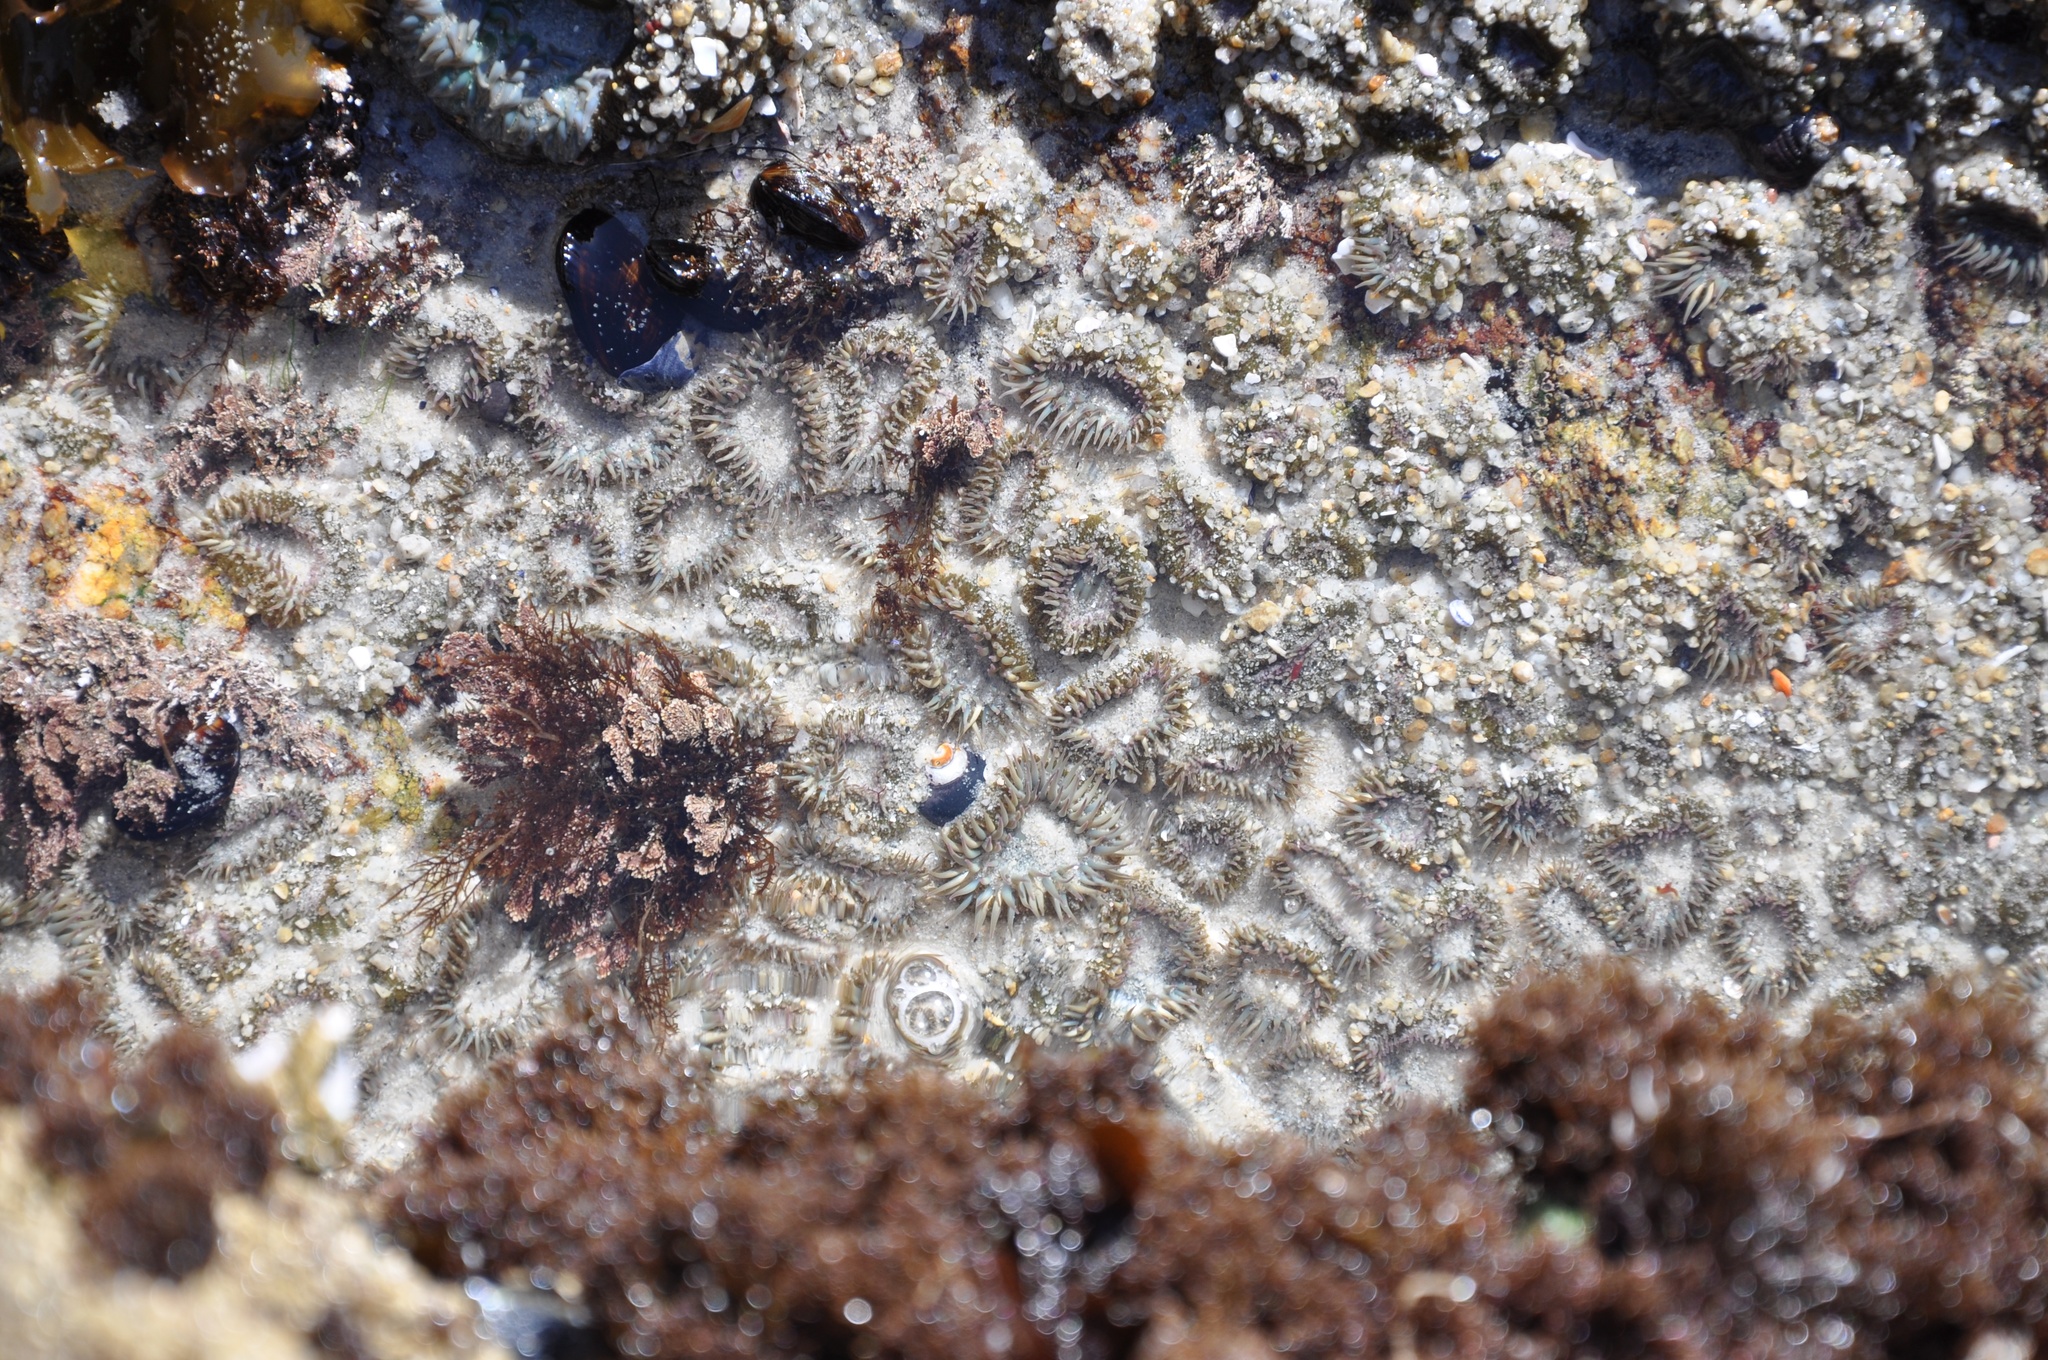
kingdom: Animalia
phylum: Cnidaria
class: Anthozoa
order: Actiniaria
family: Actiniidae
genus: Anthopleura
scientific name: Anthopleura elegantissima
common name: Clonal anemone
